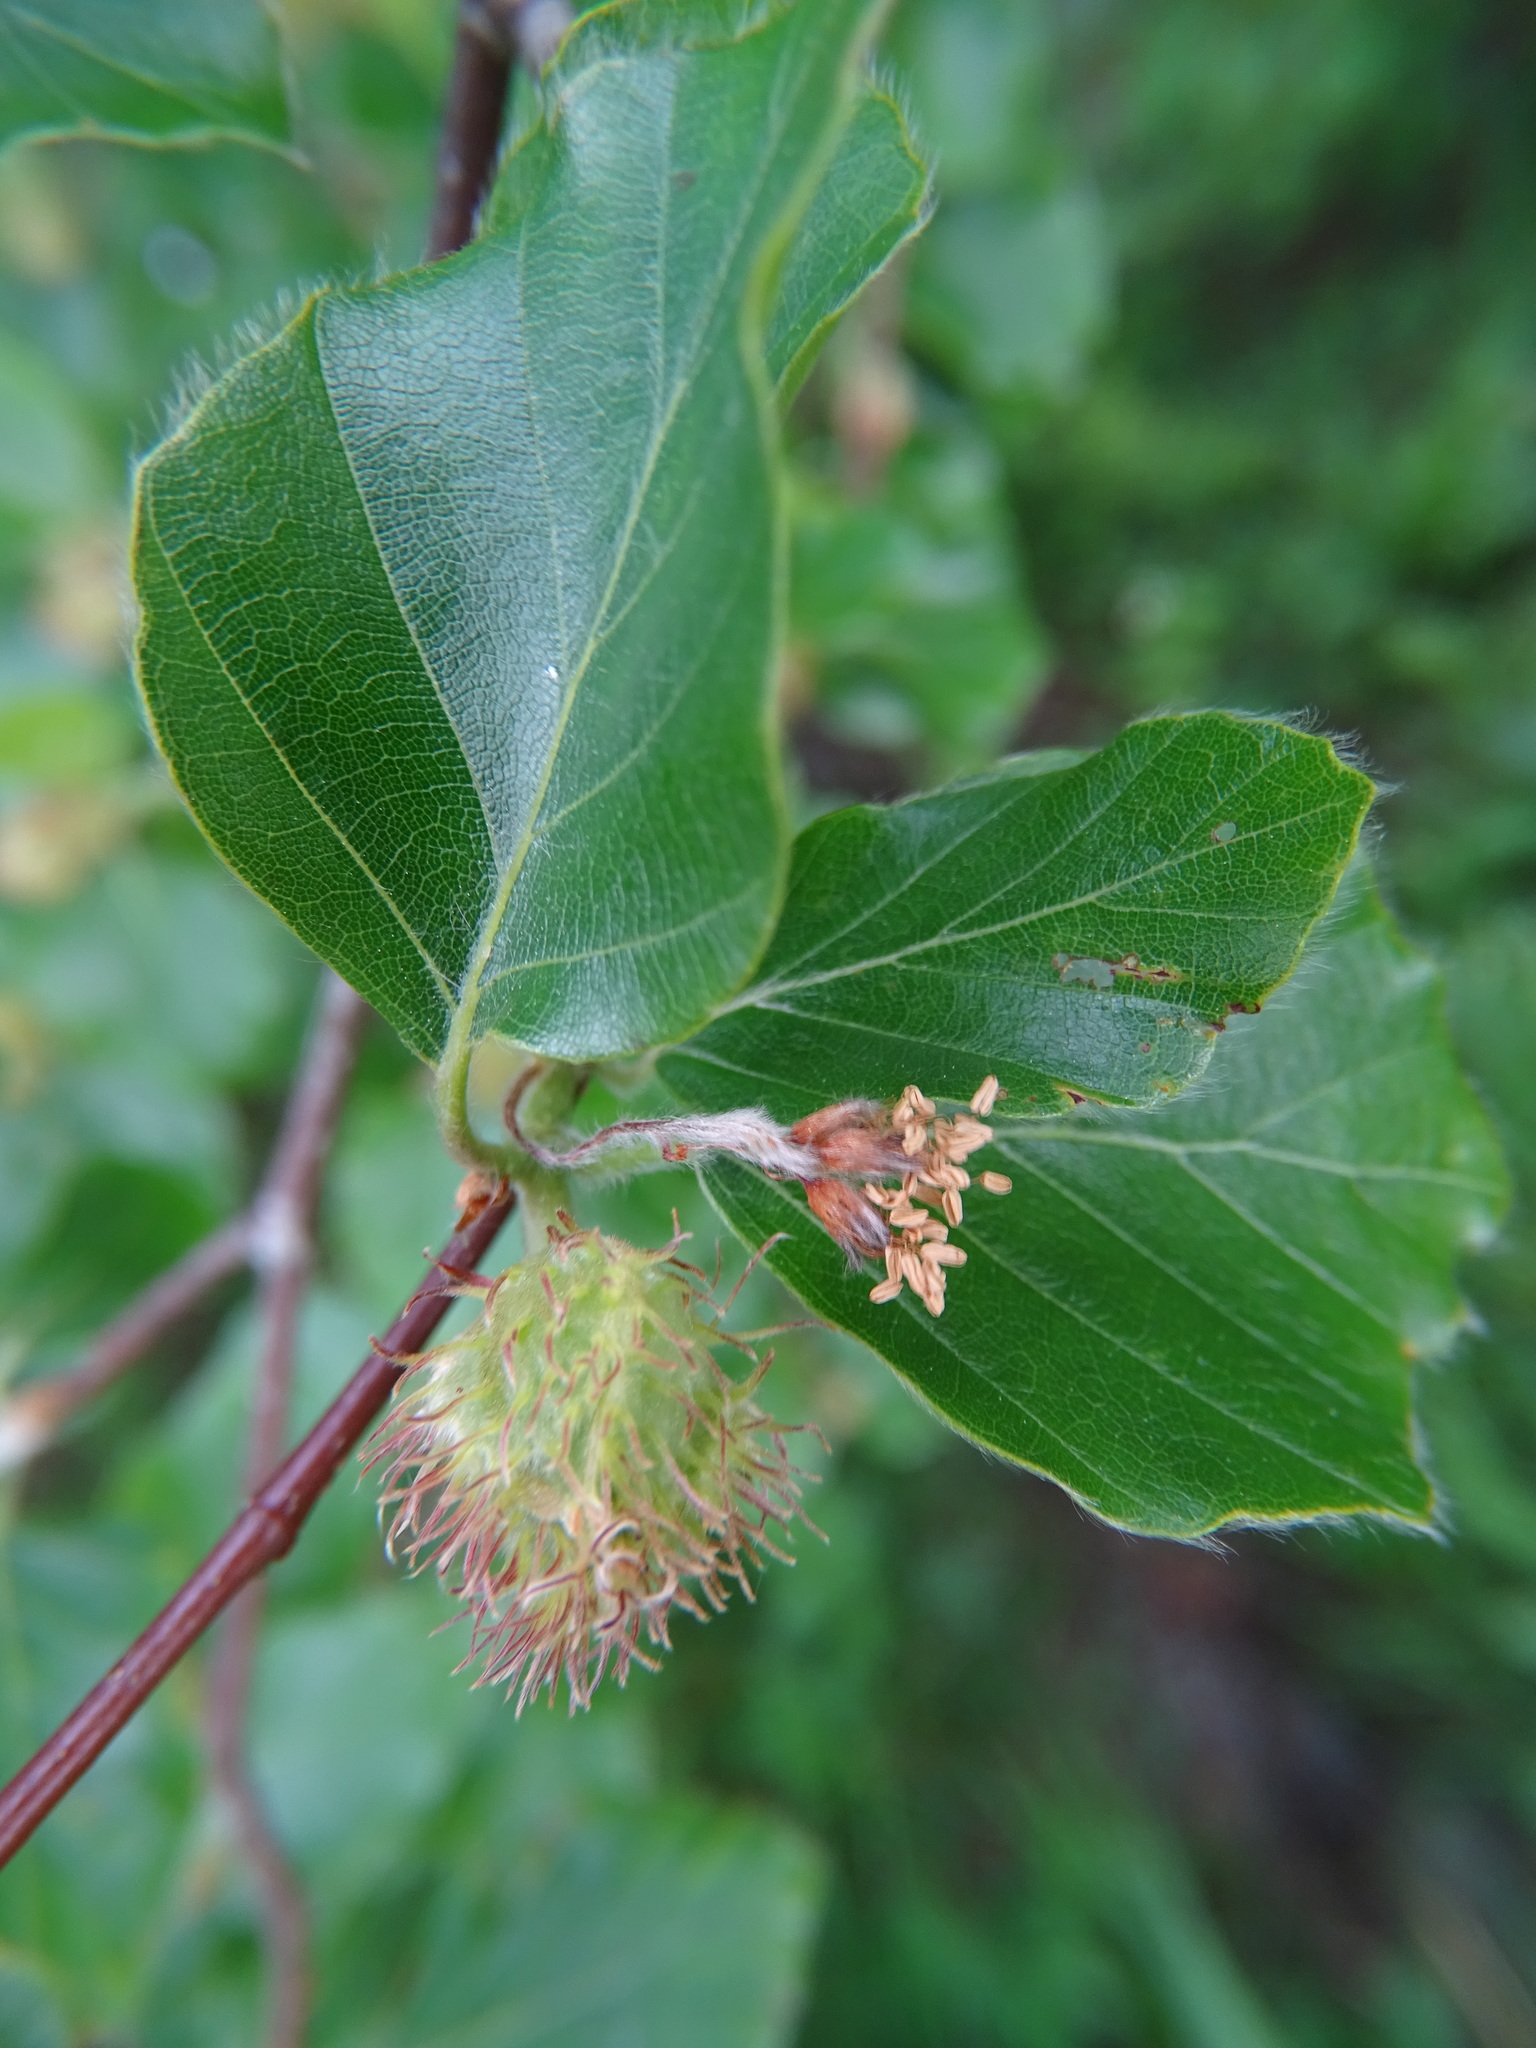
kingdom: Plantae
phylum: Tracheophyta
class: Magnoliopsida
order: Fagales
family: Fagaceae
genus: Fagus
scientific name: Fagus sylvatica
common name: Beech
